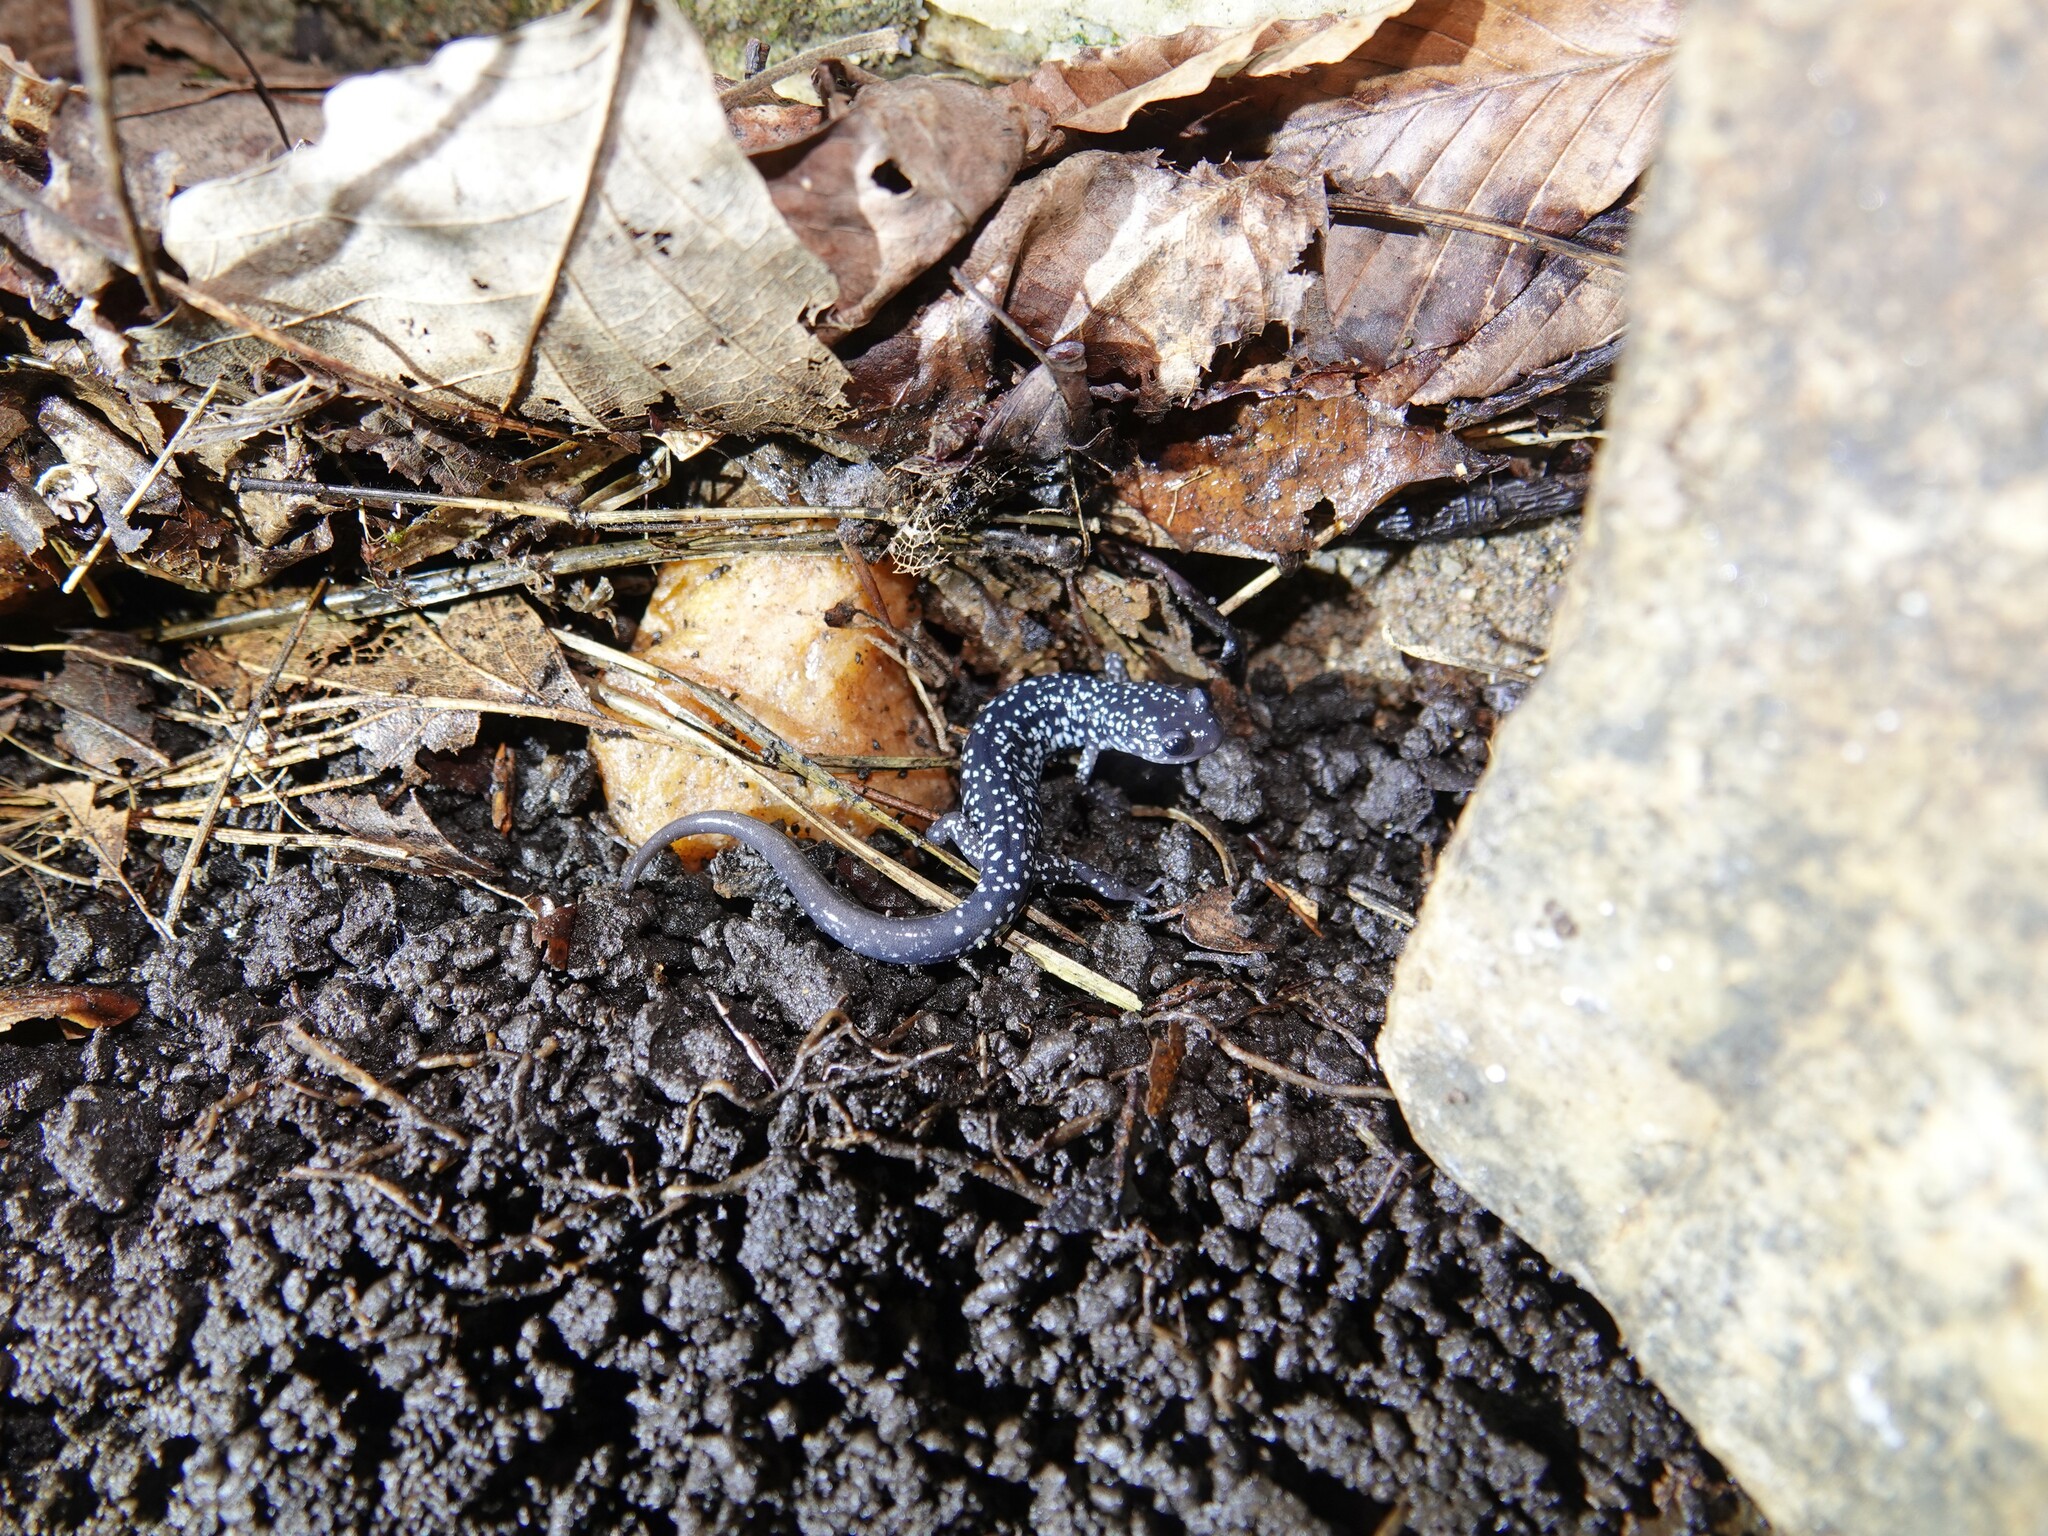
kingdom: Animalia
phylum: Chordata
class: Amphibia
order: Caudata
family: Plethodontidae
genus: Plethodon
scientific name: Plethodon cylindraceus
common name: White-spotted slimy salamander
